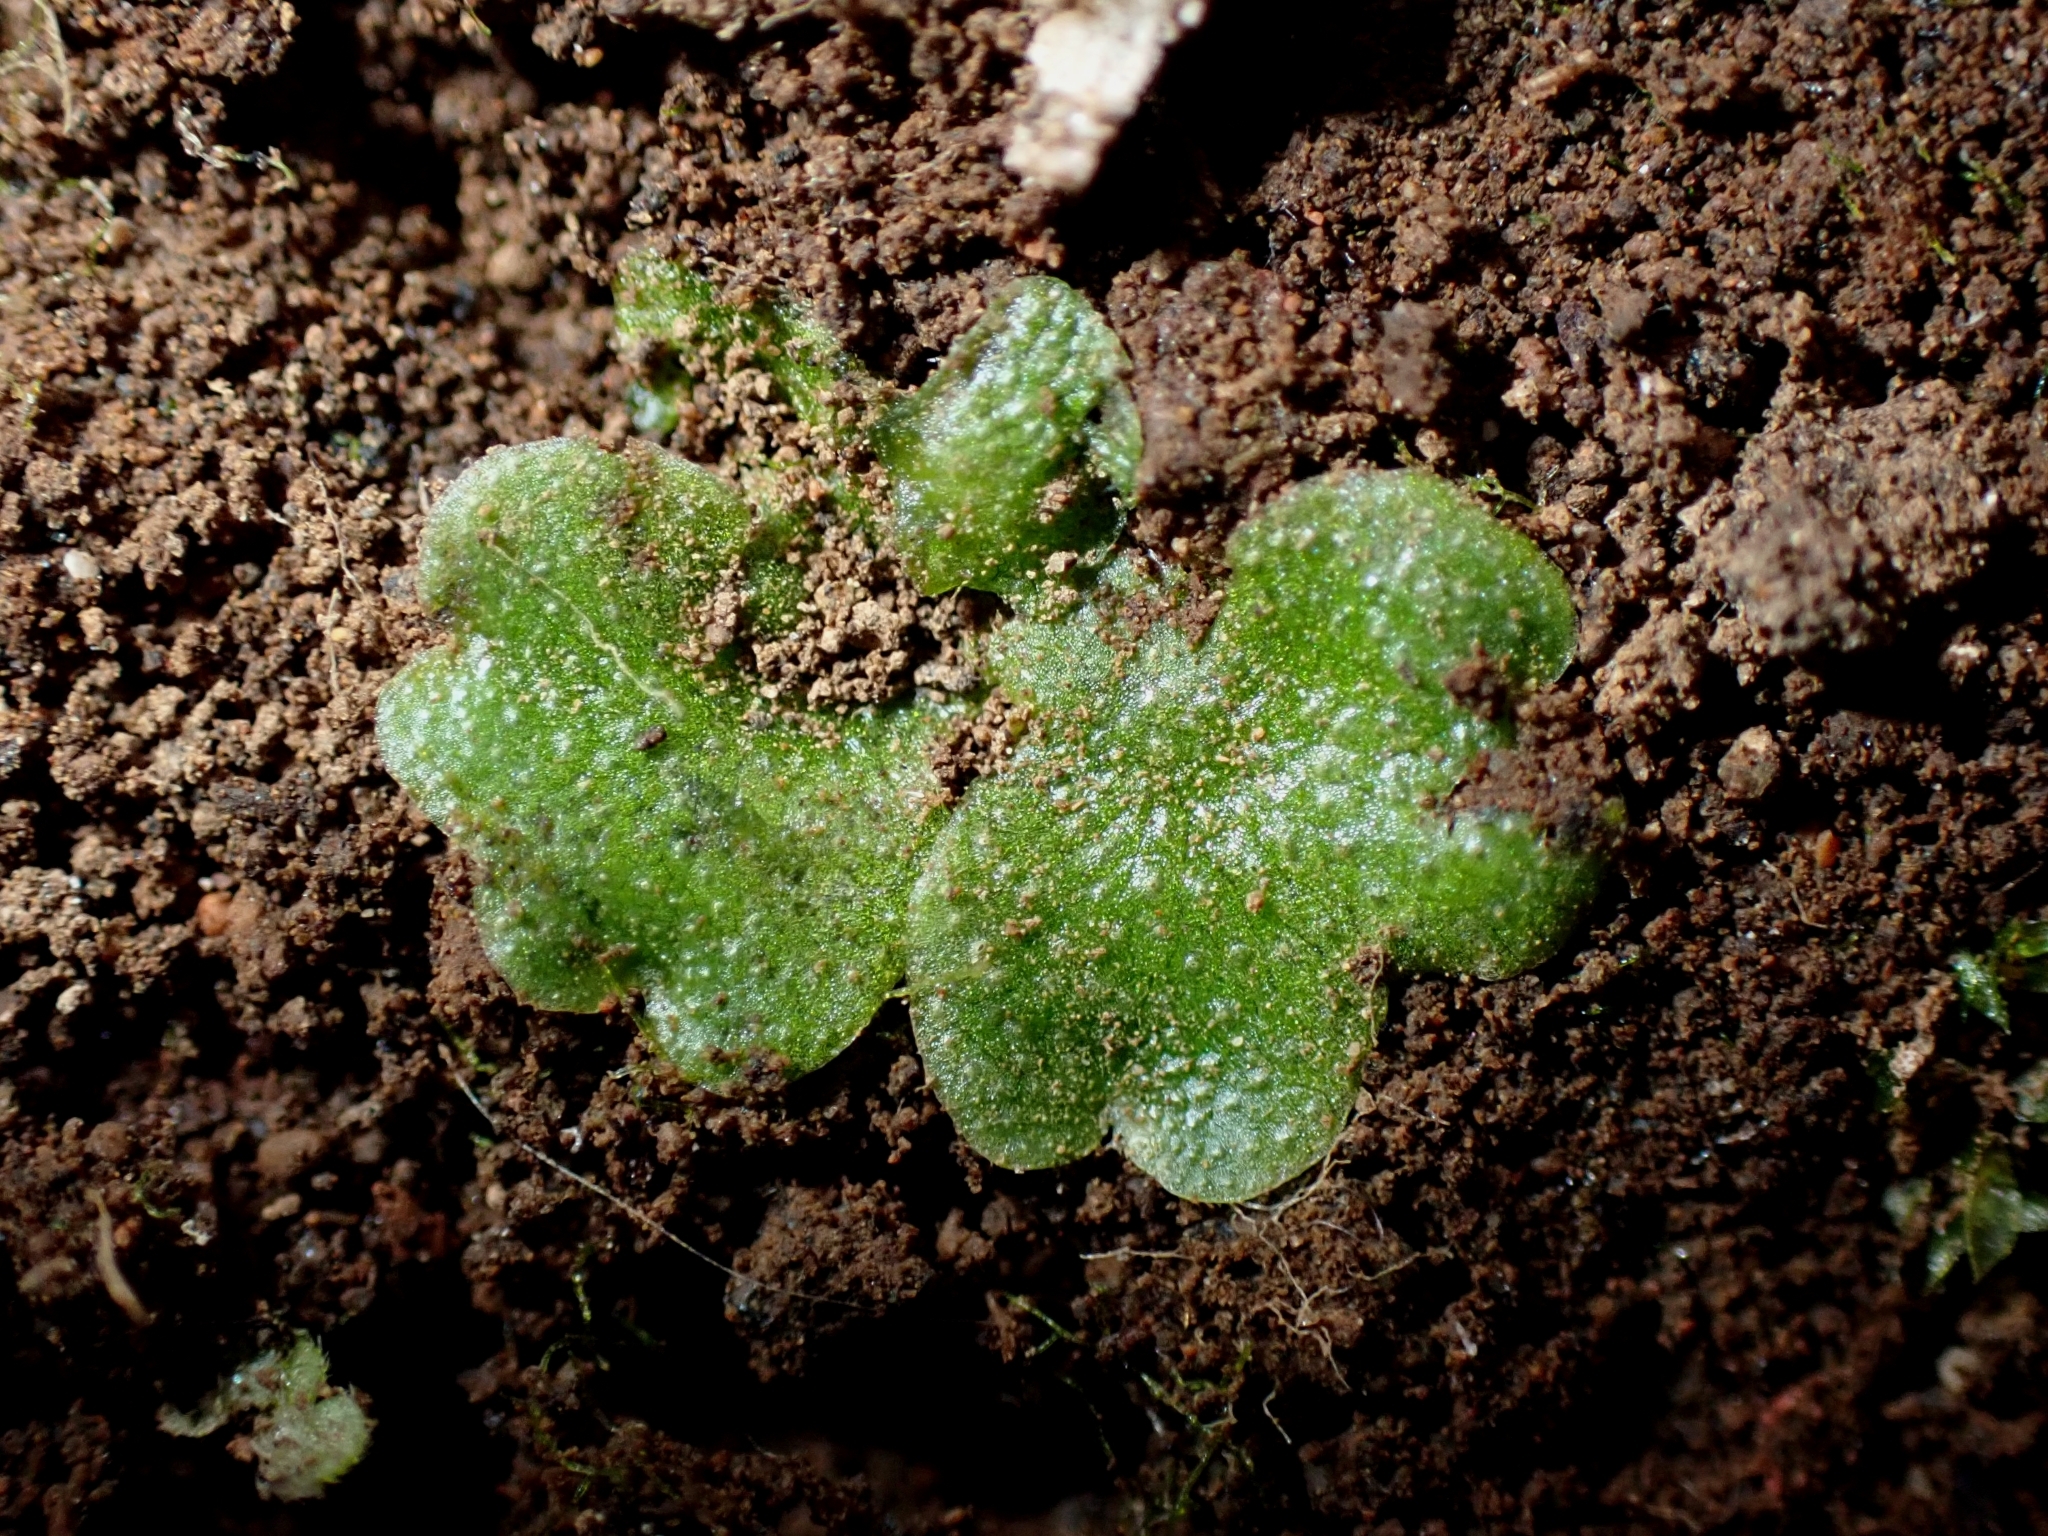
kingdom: Plantae
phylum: Marchantiophyta
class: Marchantiopsida
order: Lunulariales
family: Lunulariaceae
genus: Lunularia
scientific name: Lunularia cruciata
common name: Crescent-cup liverwort
